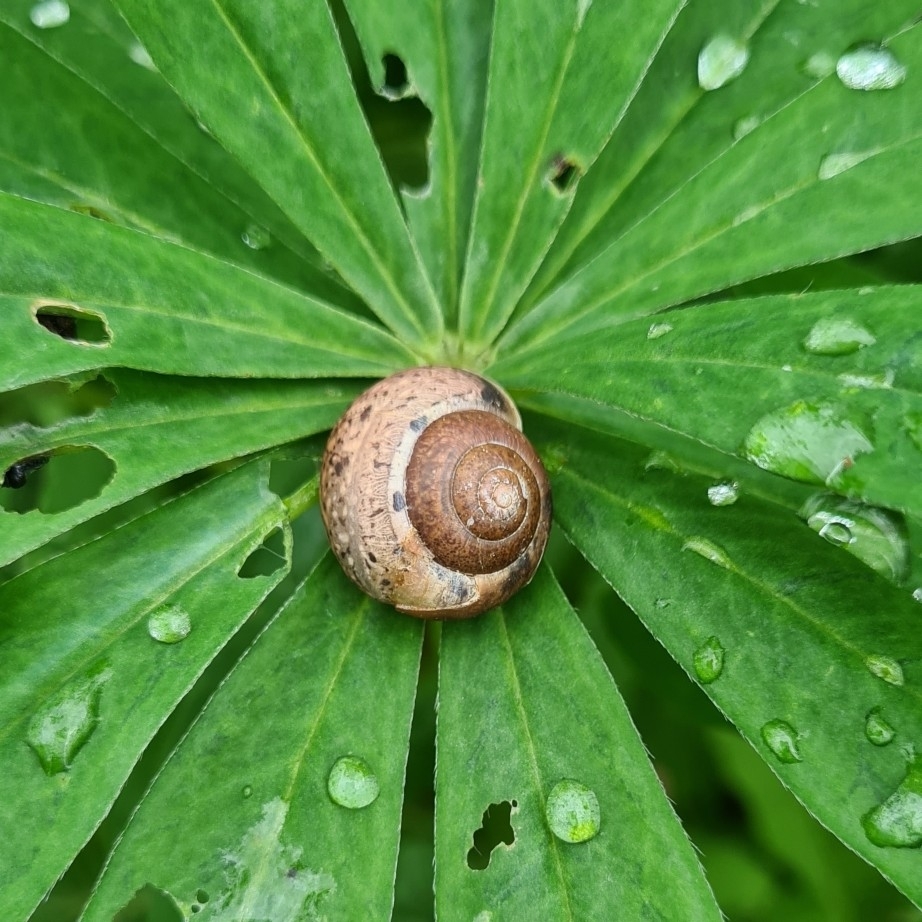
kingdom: Animalia
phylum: Mollusca
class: Gastropoda
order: Stylommatophora
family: Camaenidae
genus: Fruticicola
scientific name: Fruticicola fruticum
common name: Bush snail
